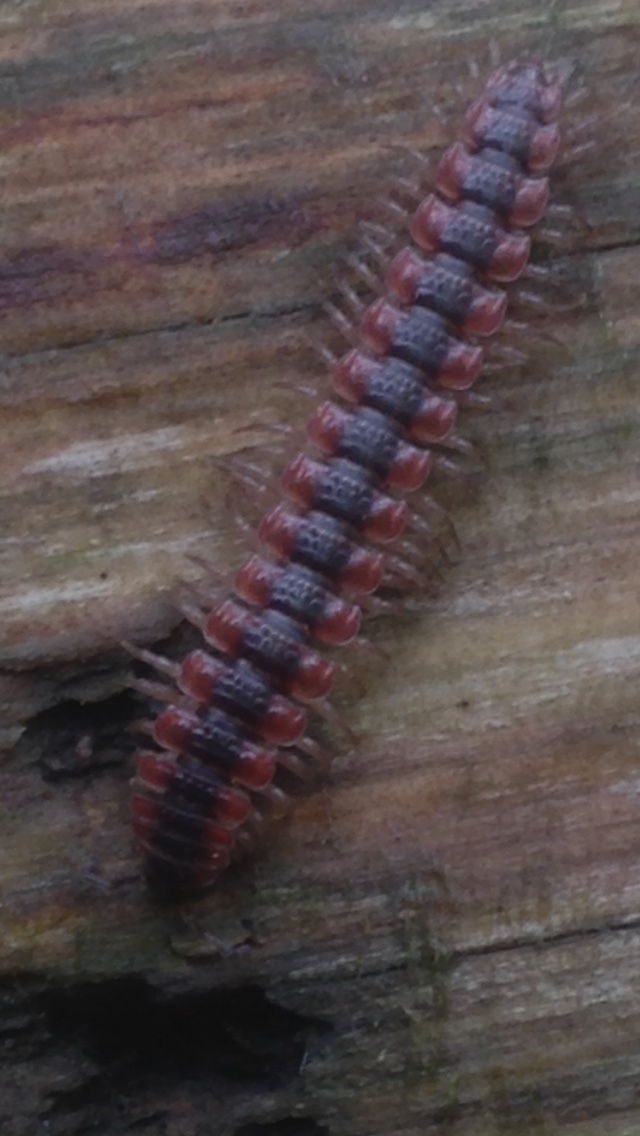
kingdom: Animalia
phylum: Arthropoda
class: Diplopoda
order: Polydesmida
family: Polydesmidae
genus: Pseudopolydesmus
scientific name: Pseudopolydesmus canadensis
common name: Canadian flat-back millipede
